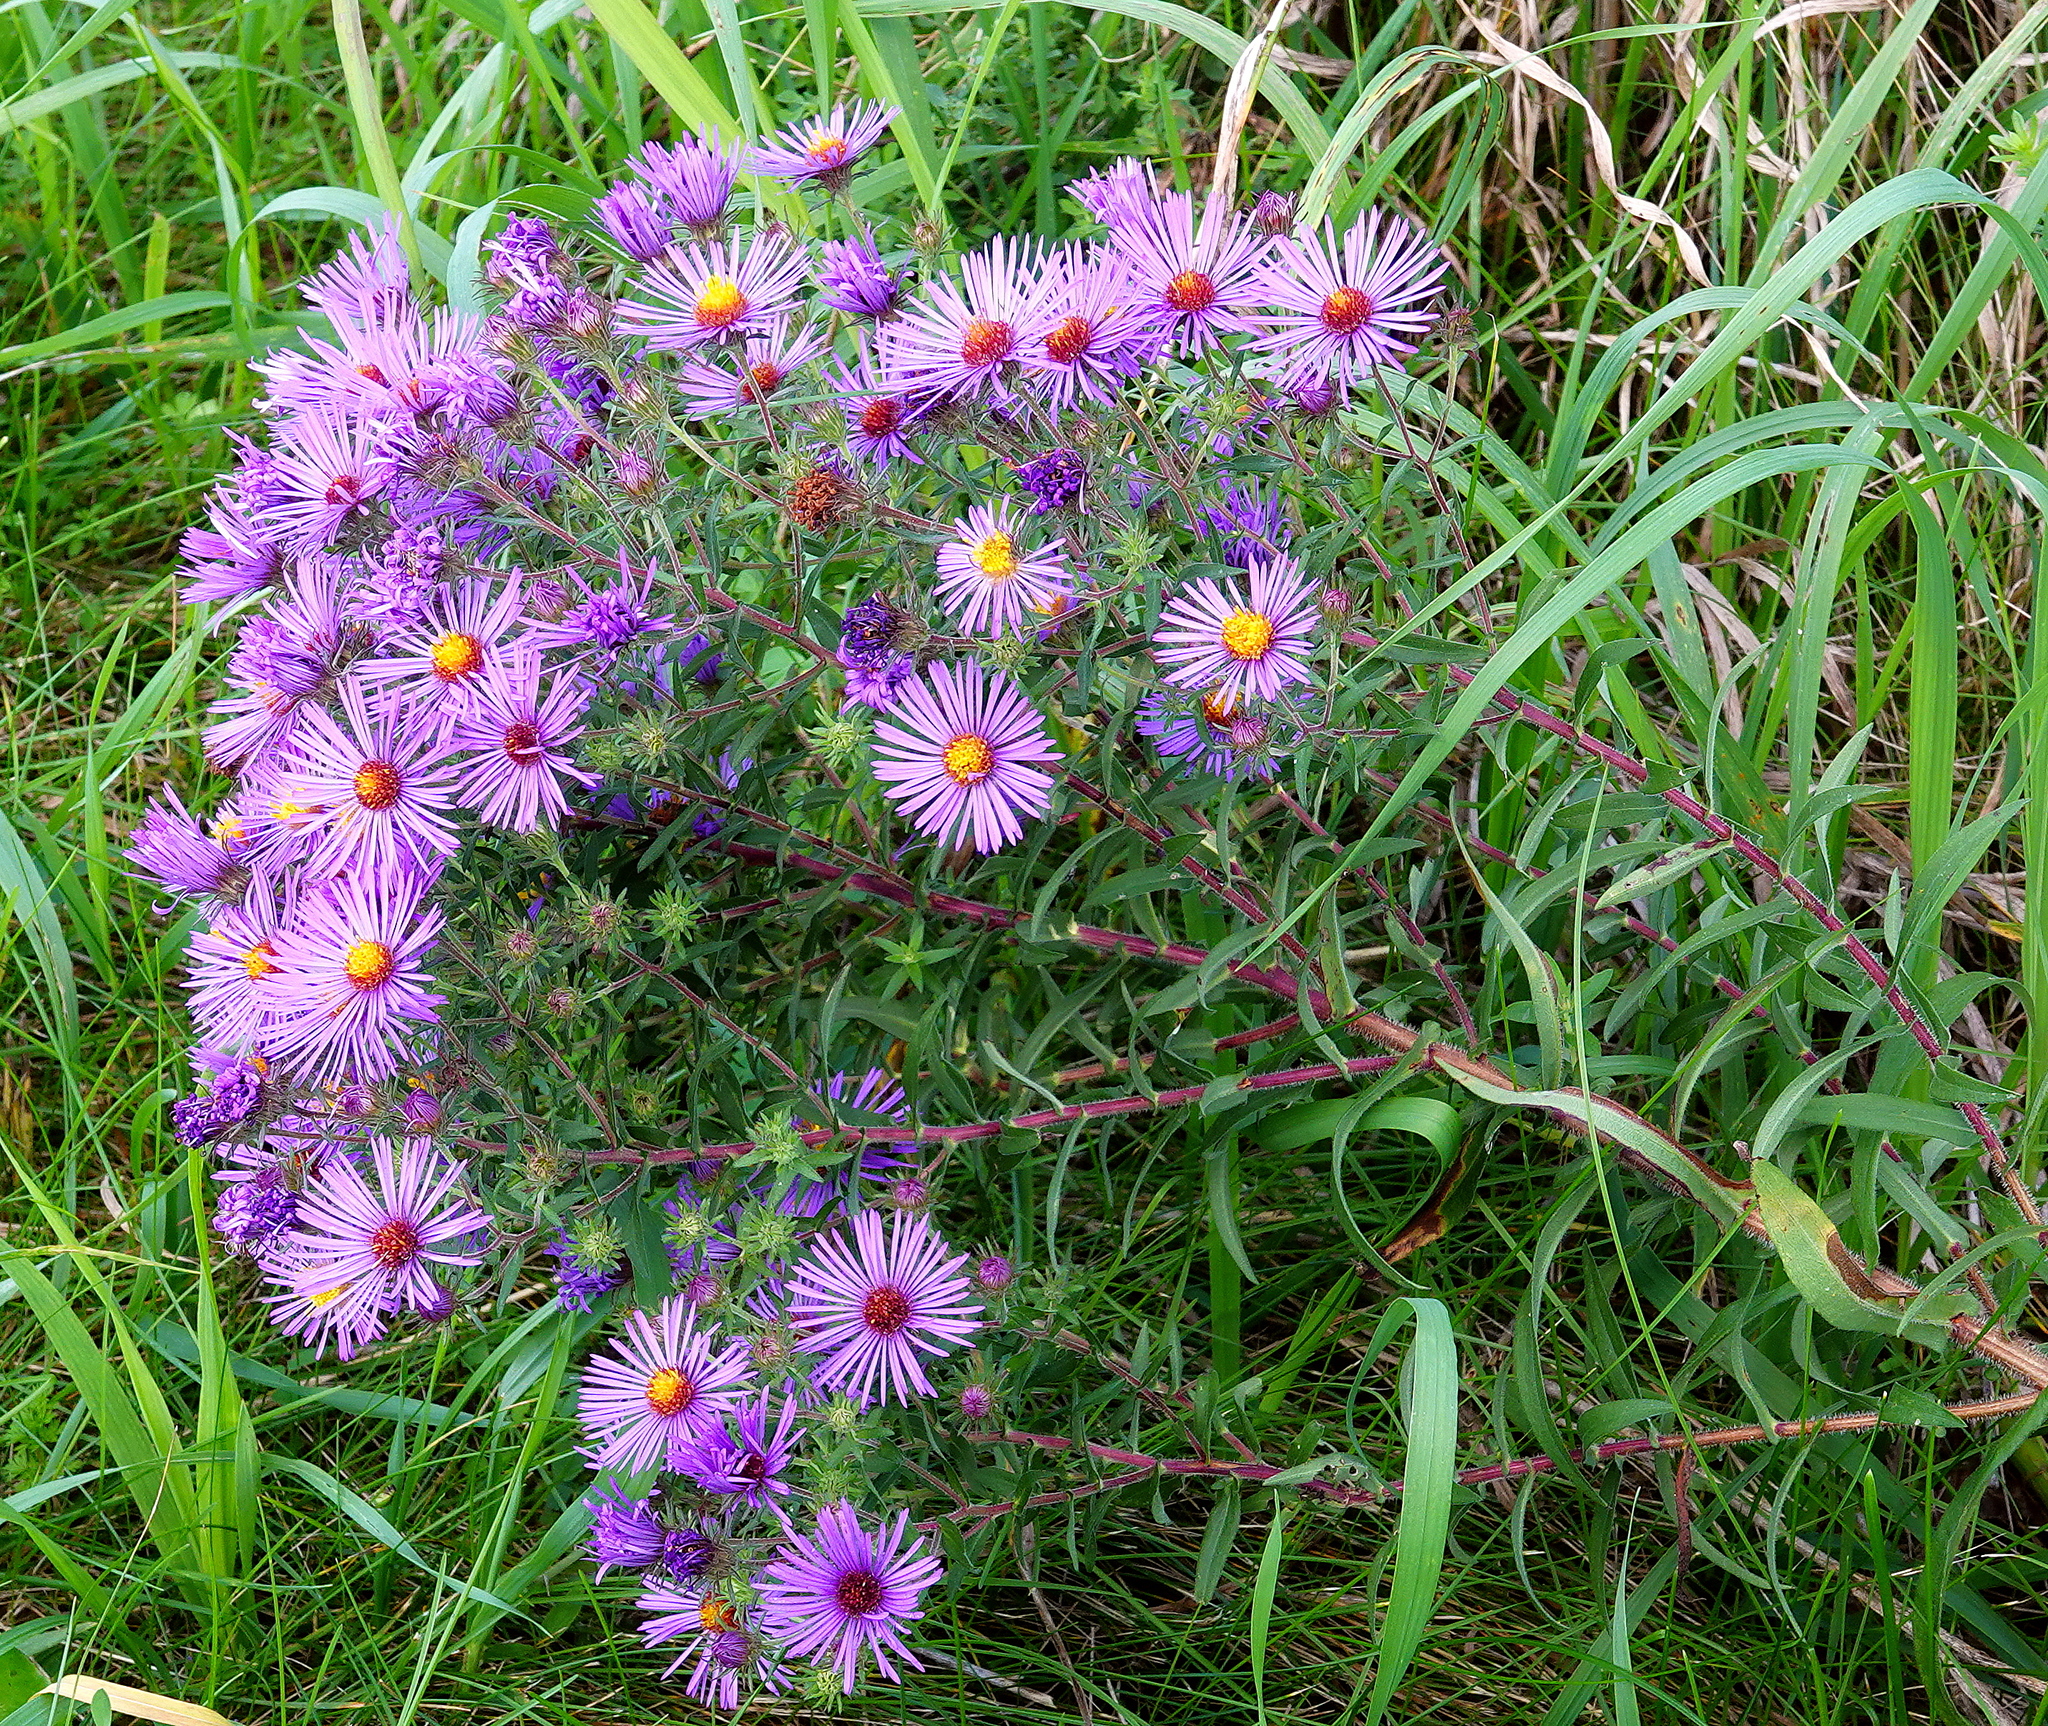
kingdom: Plantae
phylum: Tracheophyta
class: Magnoliopsida
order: Asterales
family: Asteraceae
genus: Symphyotrichum
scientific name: Symphyotrichum novae-angliae
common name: Michaelmas daisy
